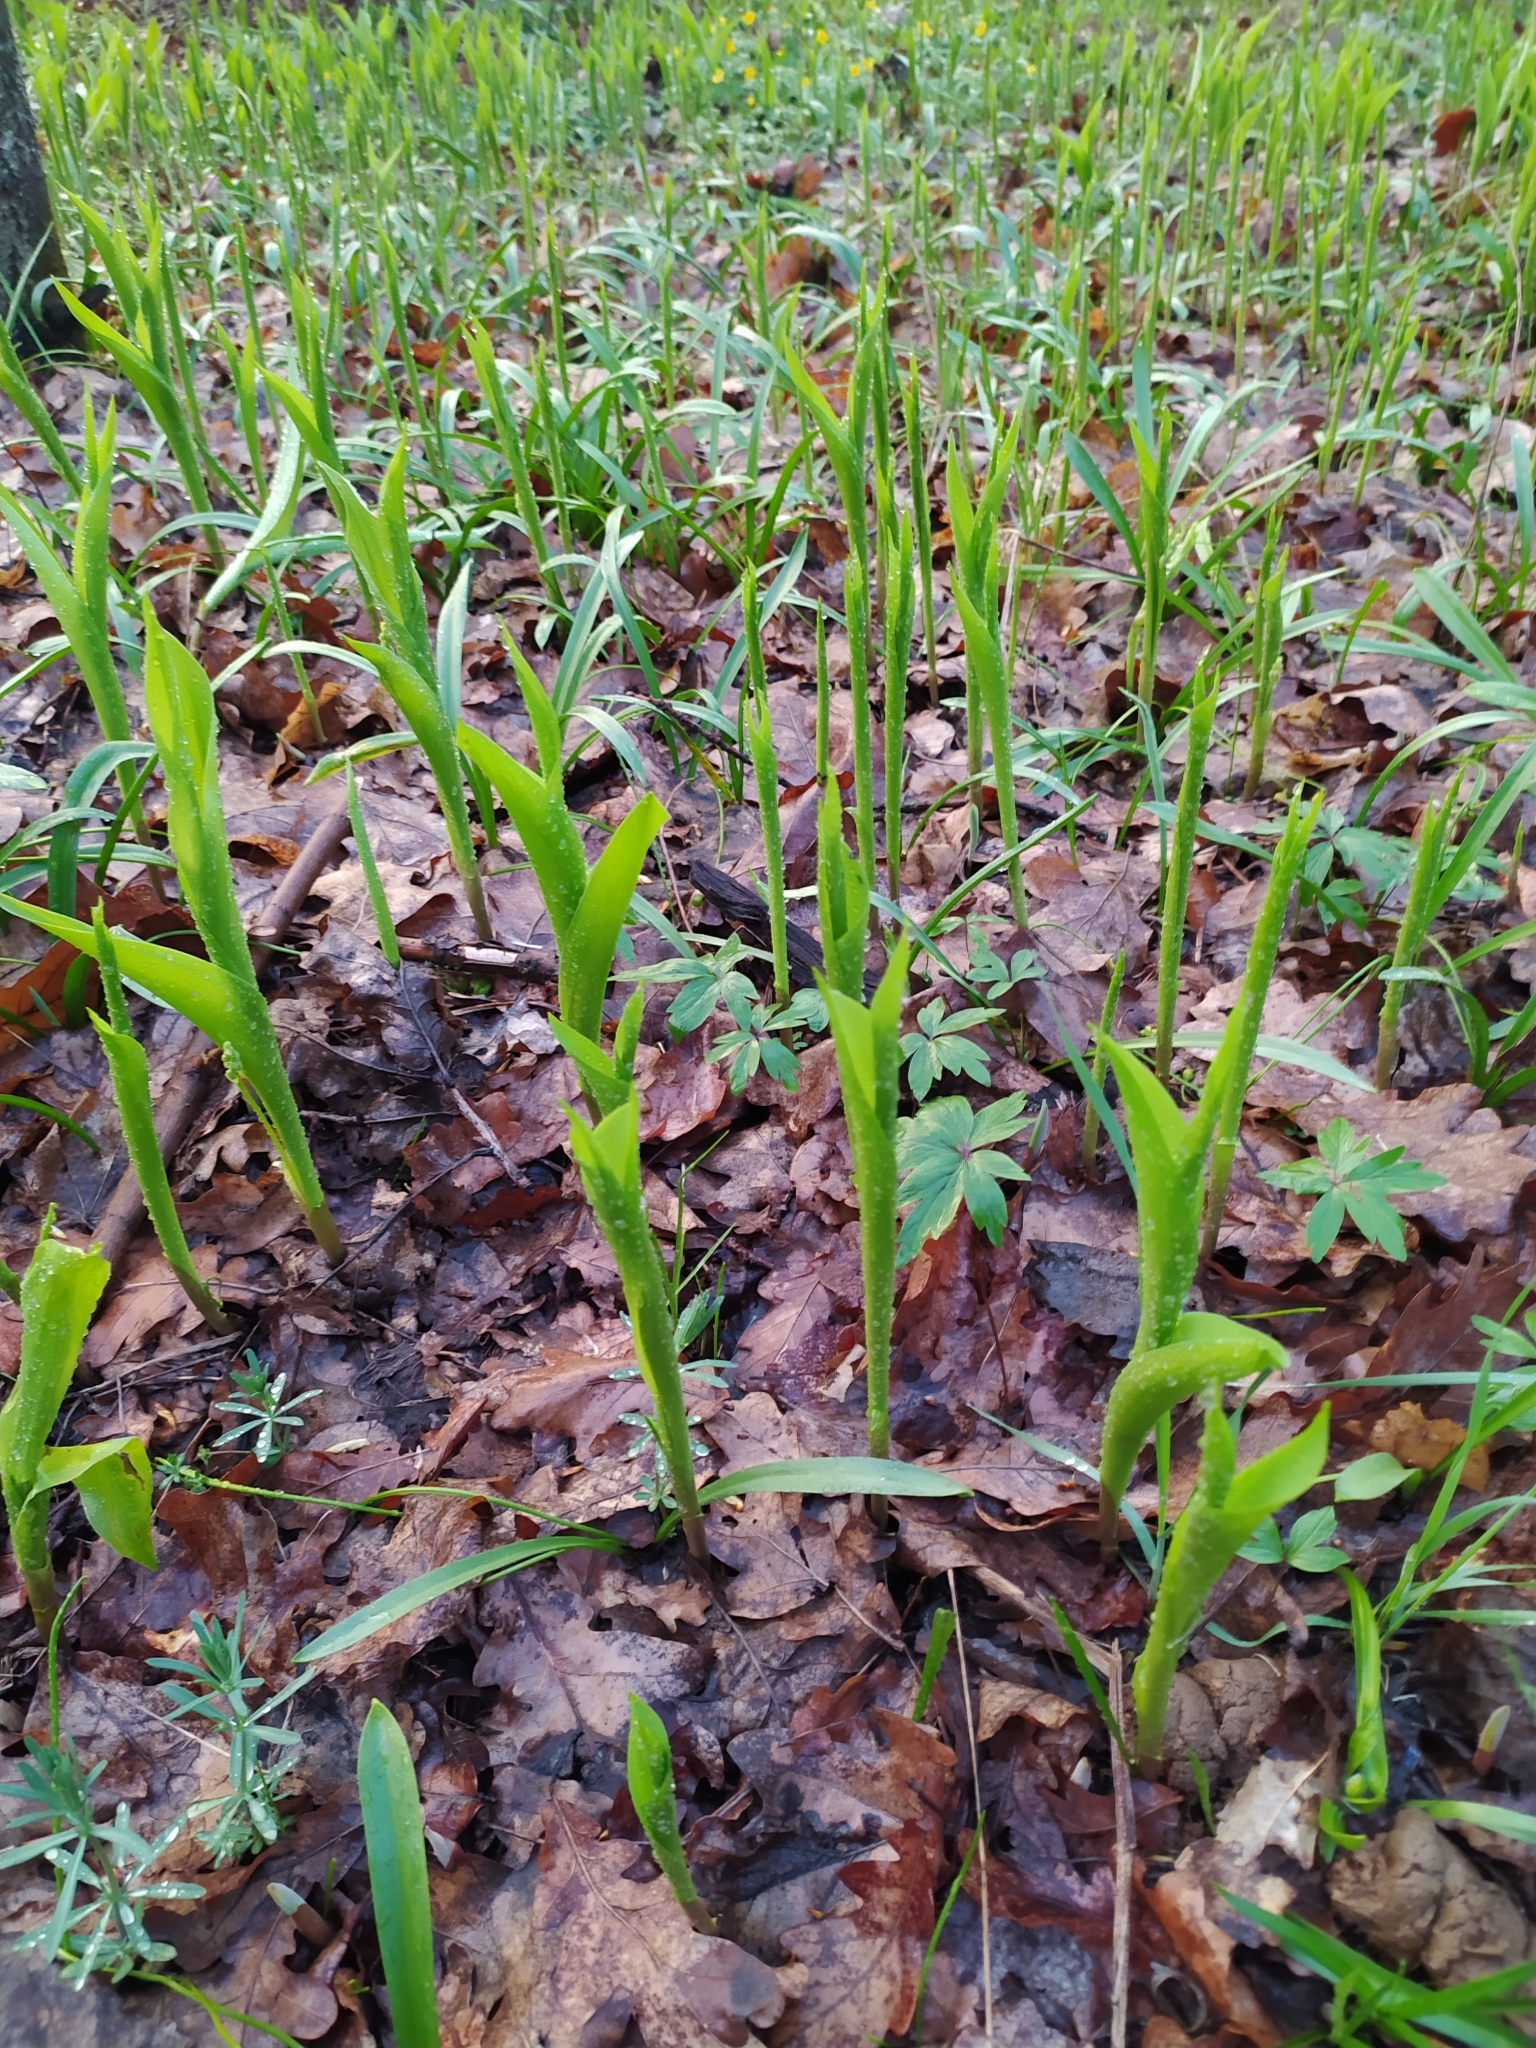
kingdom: Plantae
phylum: Tracheophyta
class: Liliopsida
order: Asparagales
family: Asparagaceae
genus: Convallaria
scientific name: Convallaria majalis
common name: Lily-of-the-valley
